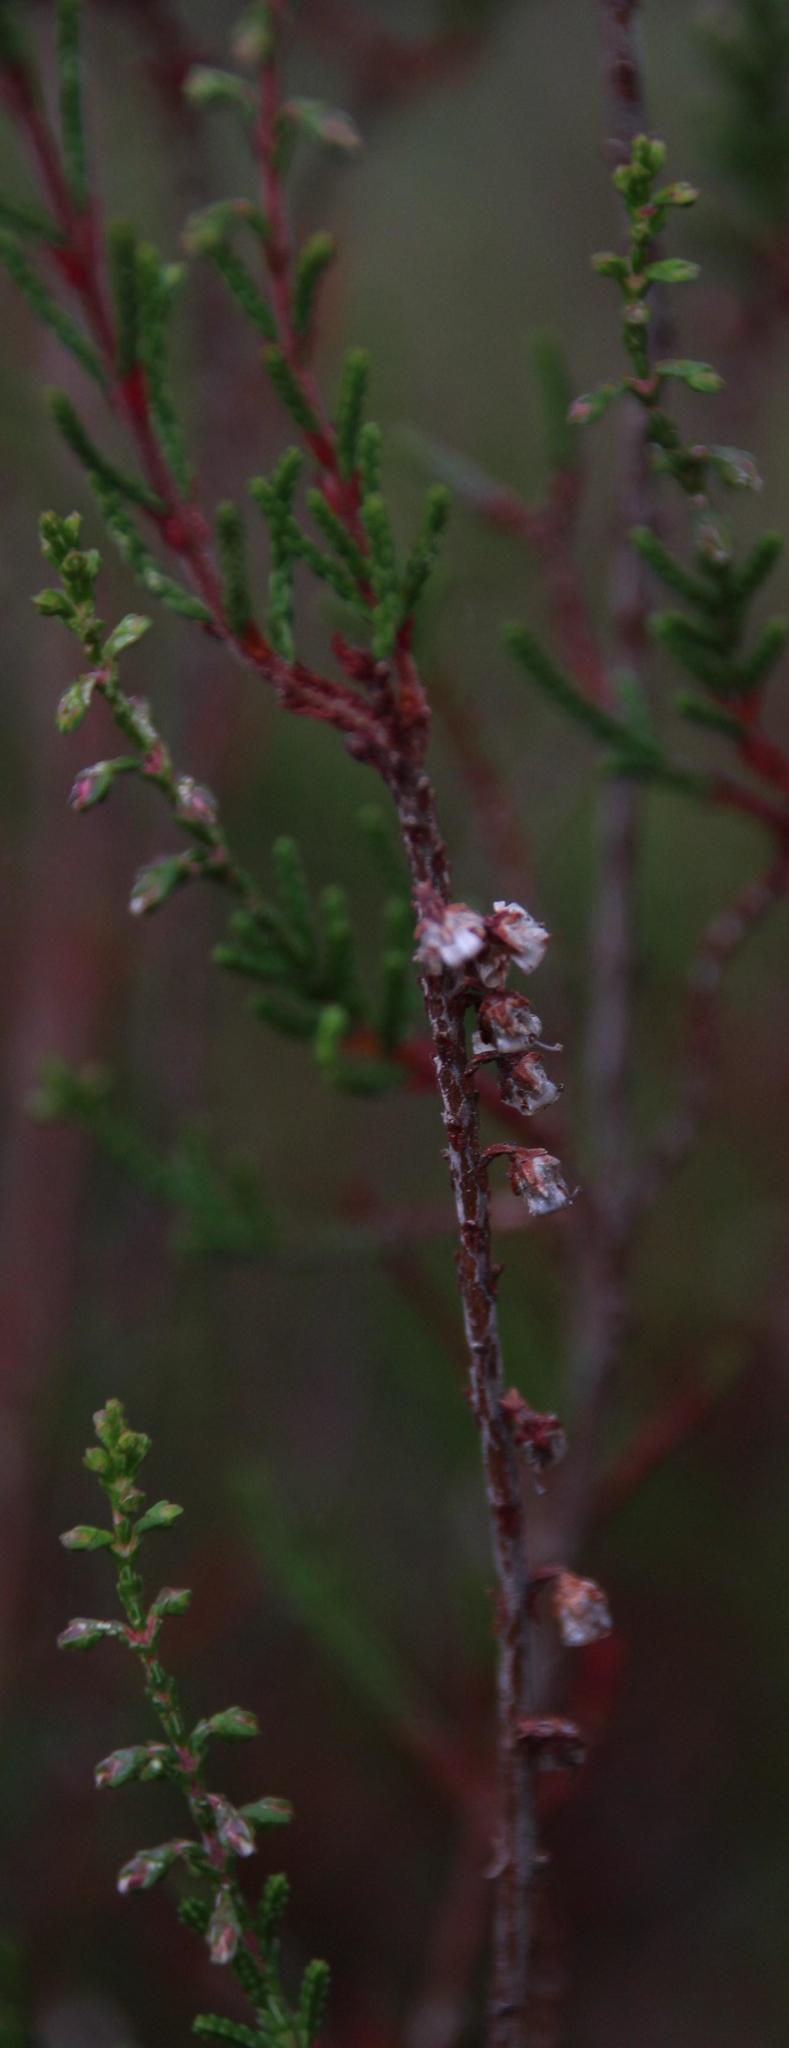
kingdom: Plantae
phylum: Tracheophyta
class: Magnoliopsida
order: Ericales
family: Ericaceae
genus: Calluna
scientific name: Calluna vulgaris
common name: Heather
